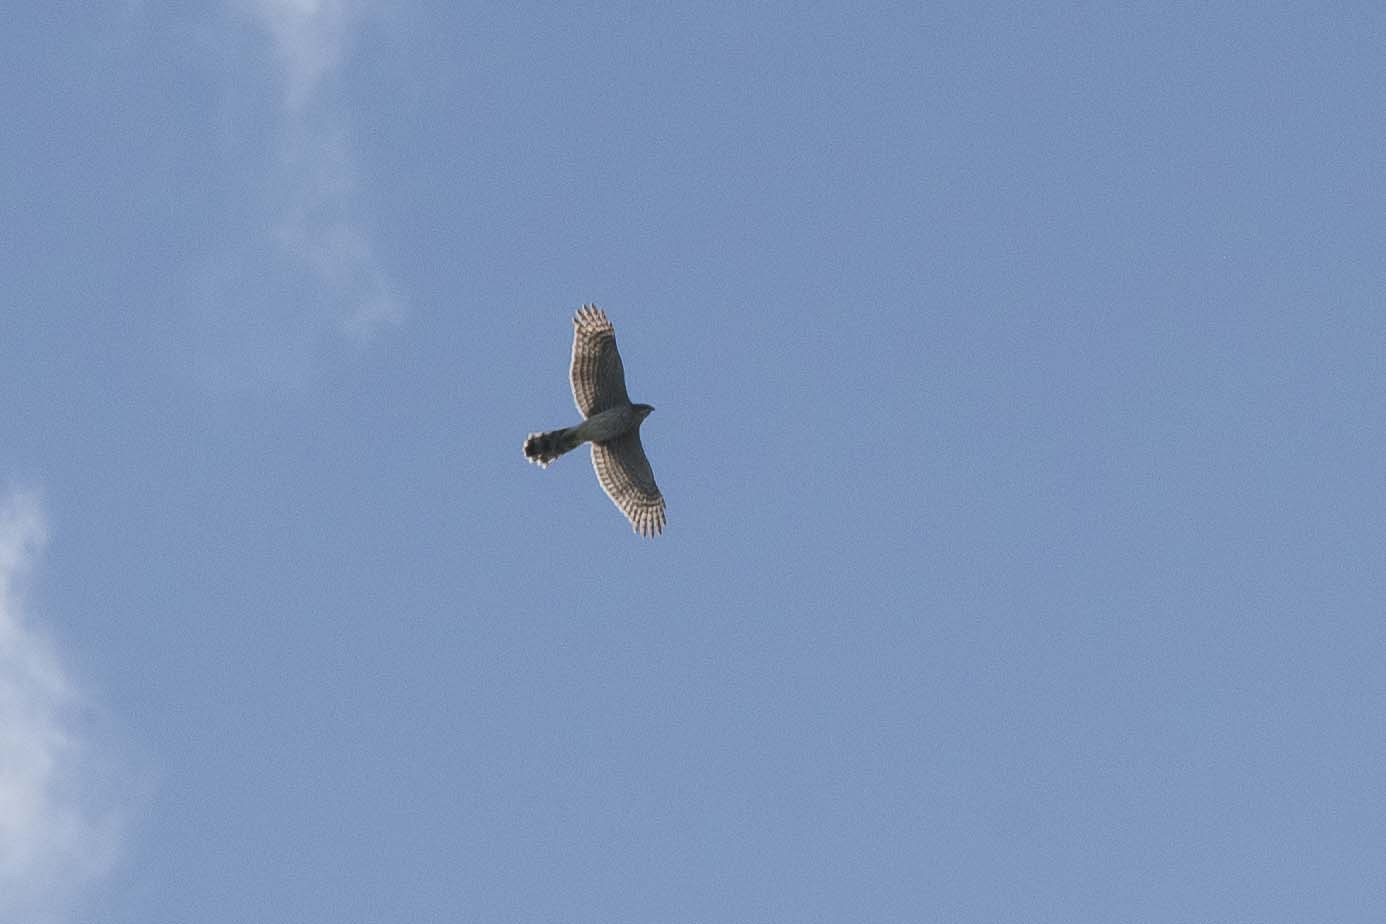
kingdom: Animalia
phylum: Chordata
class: Aves
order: Accipitriformes
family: Accipitridae
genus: Accipiter
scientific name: Accipiter cooperii
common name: Cooper's hawk
